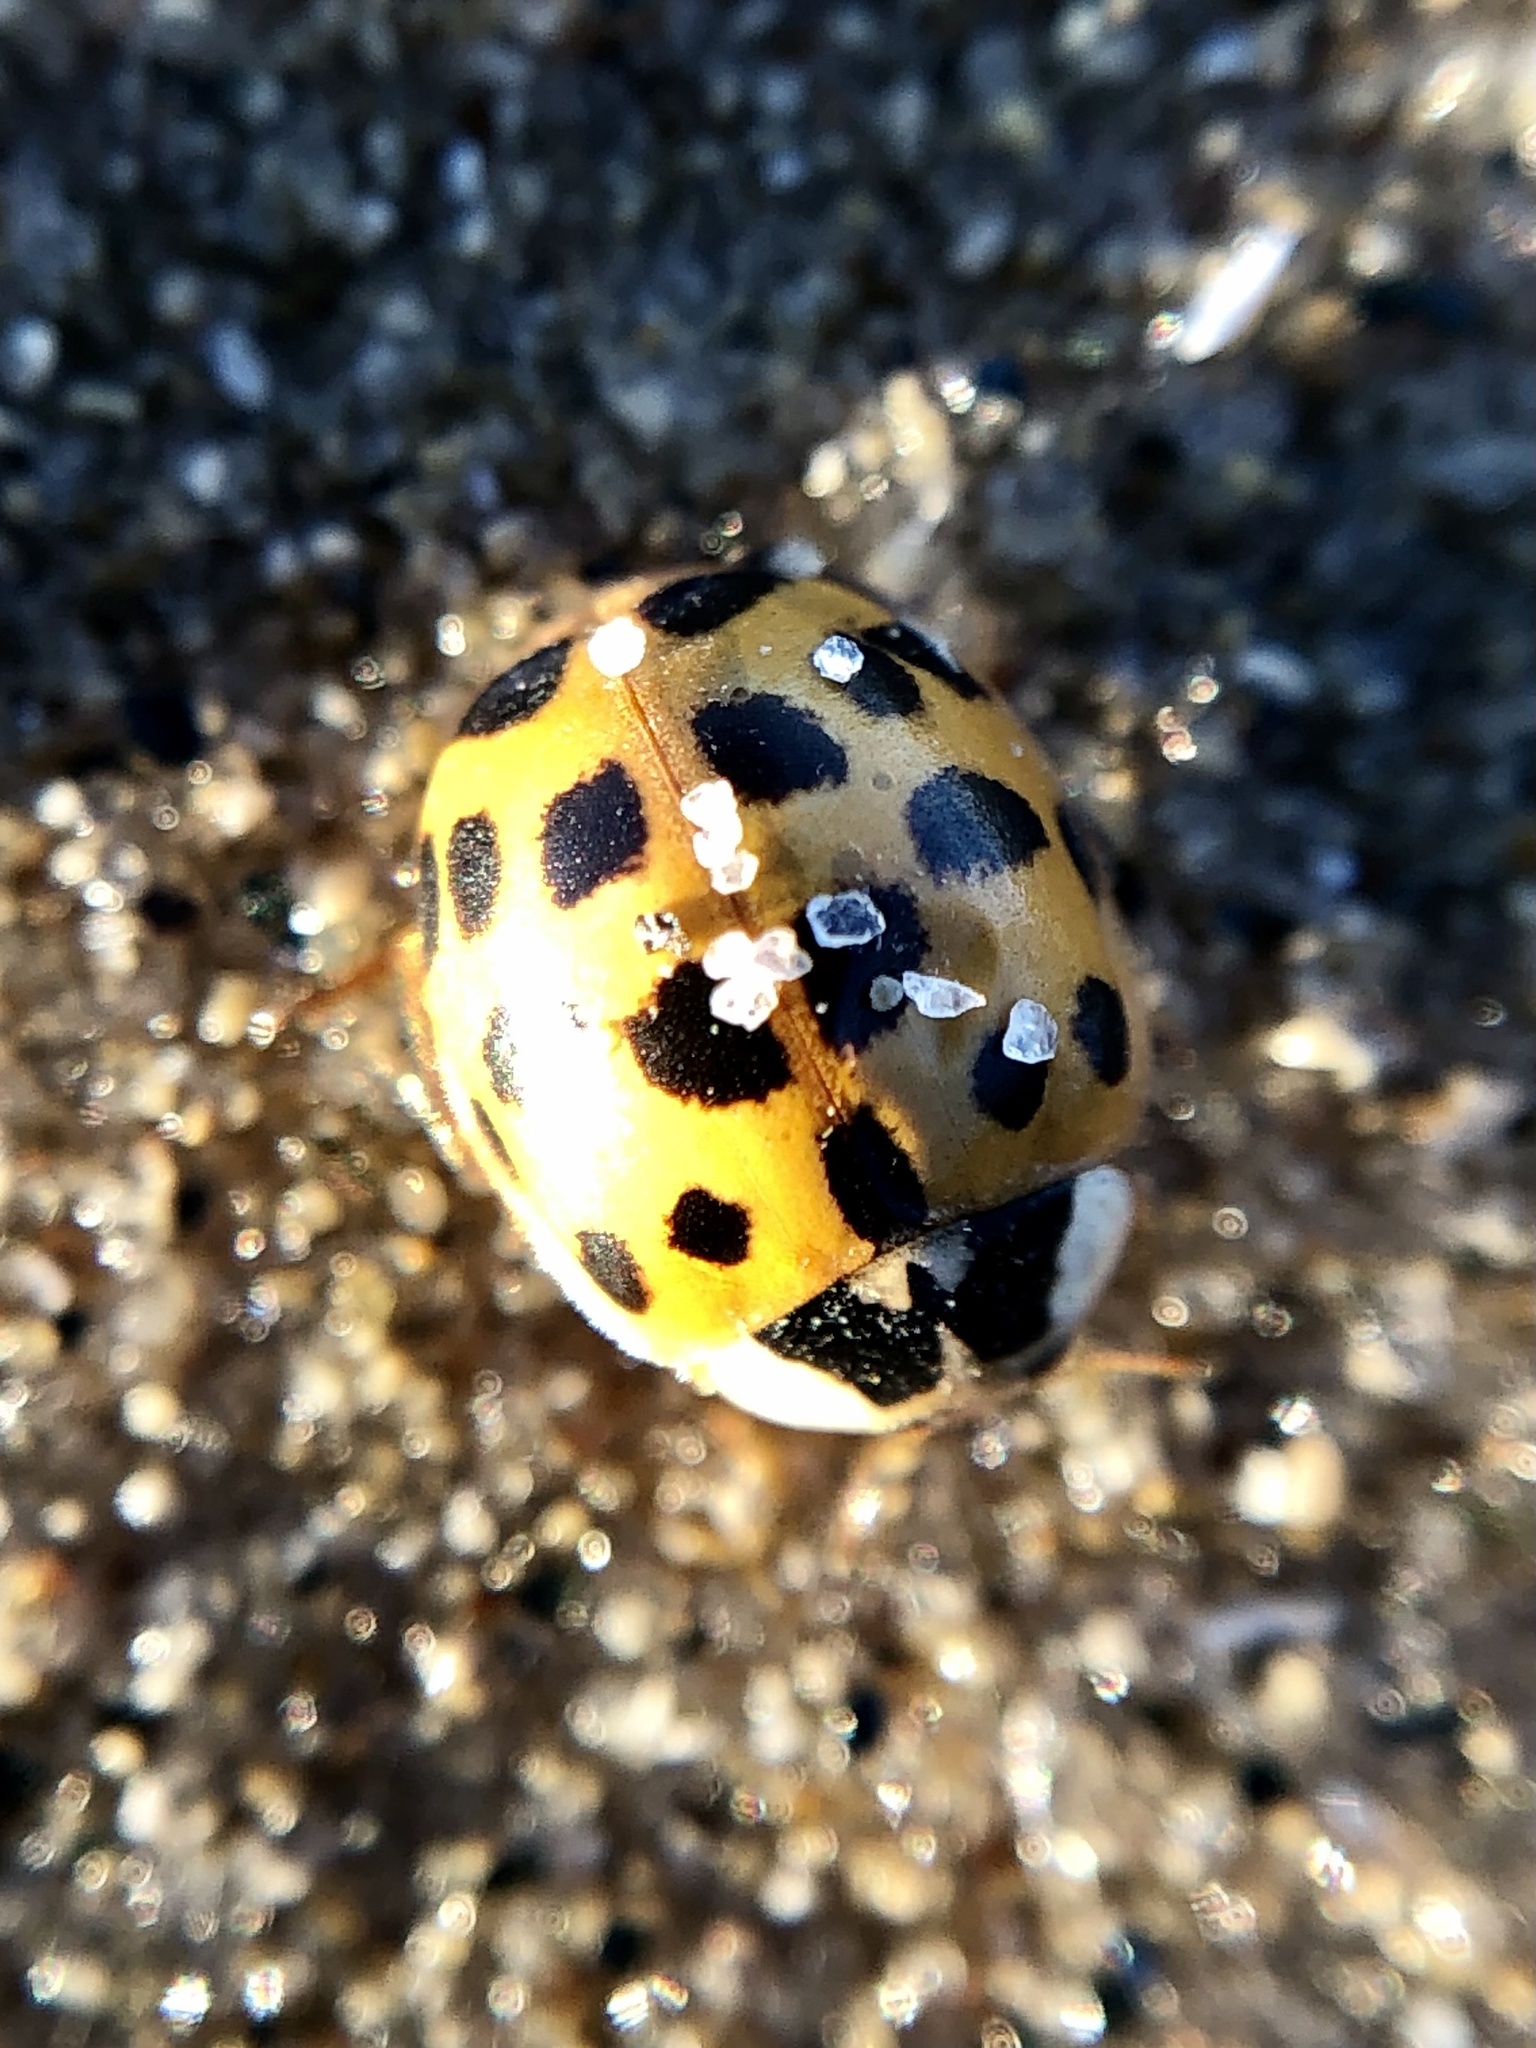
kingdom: Animalia
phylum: Arthropoda
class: Insecta
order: Coleoptera
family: Coccinellidae
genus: Harmonia
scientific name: Harmonia axyridis
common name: Harlequin ladybird
